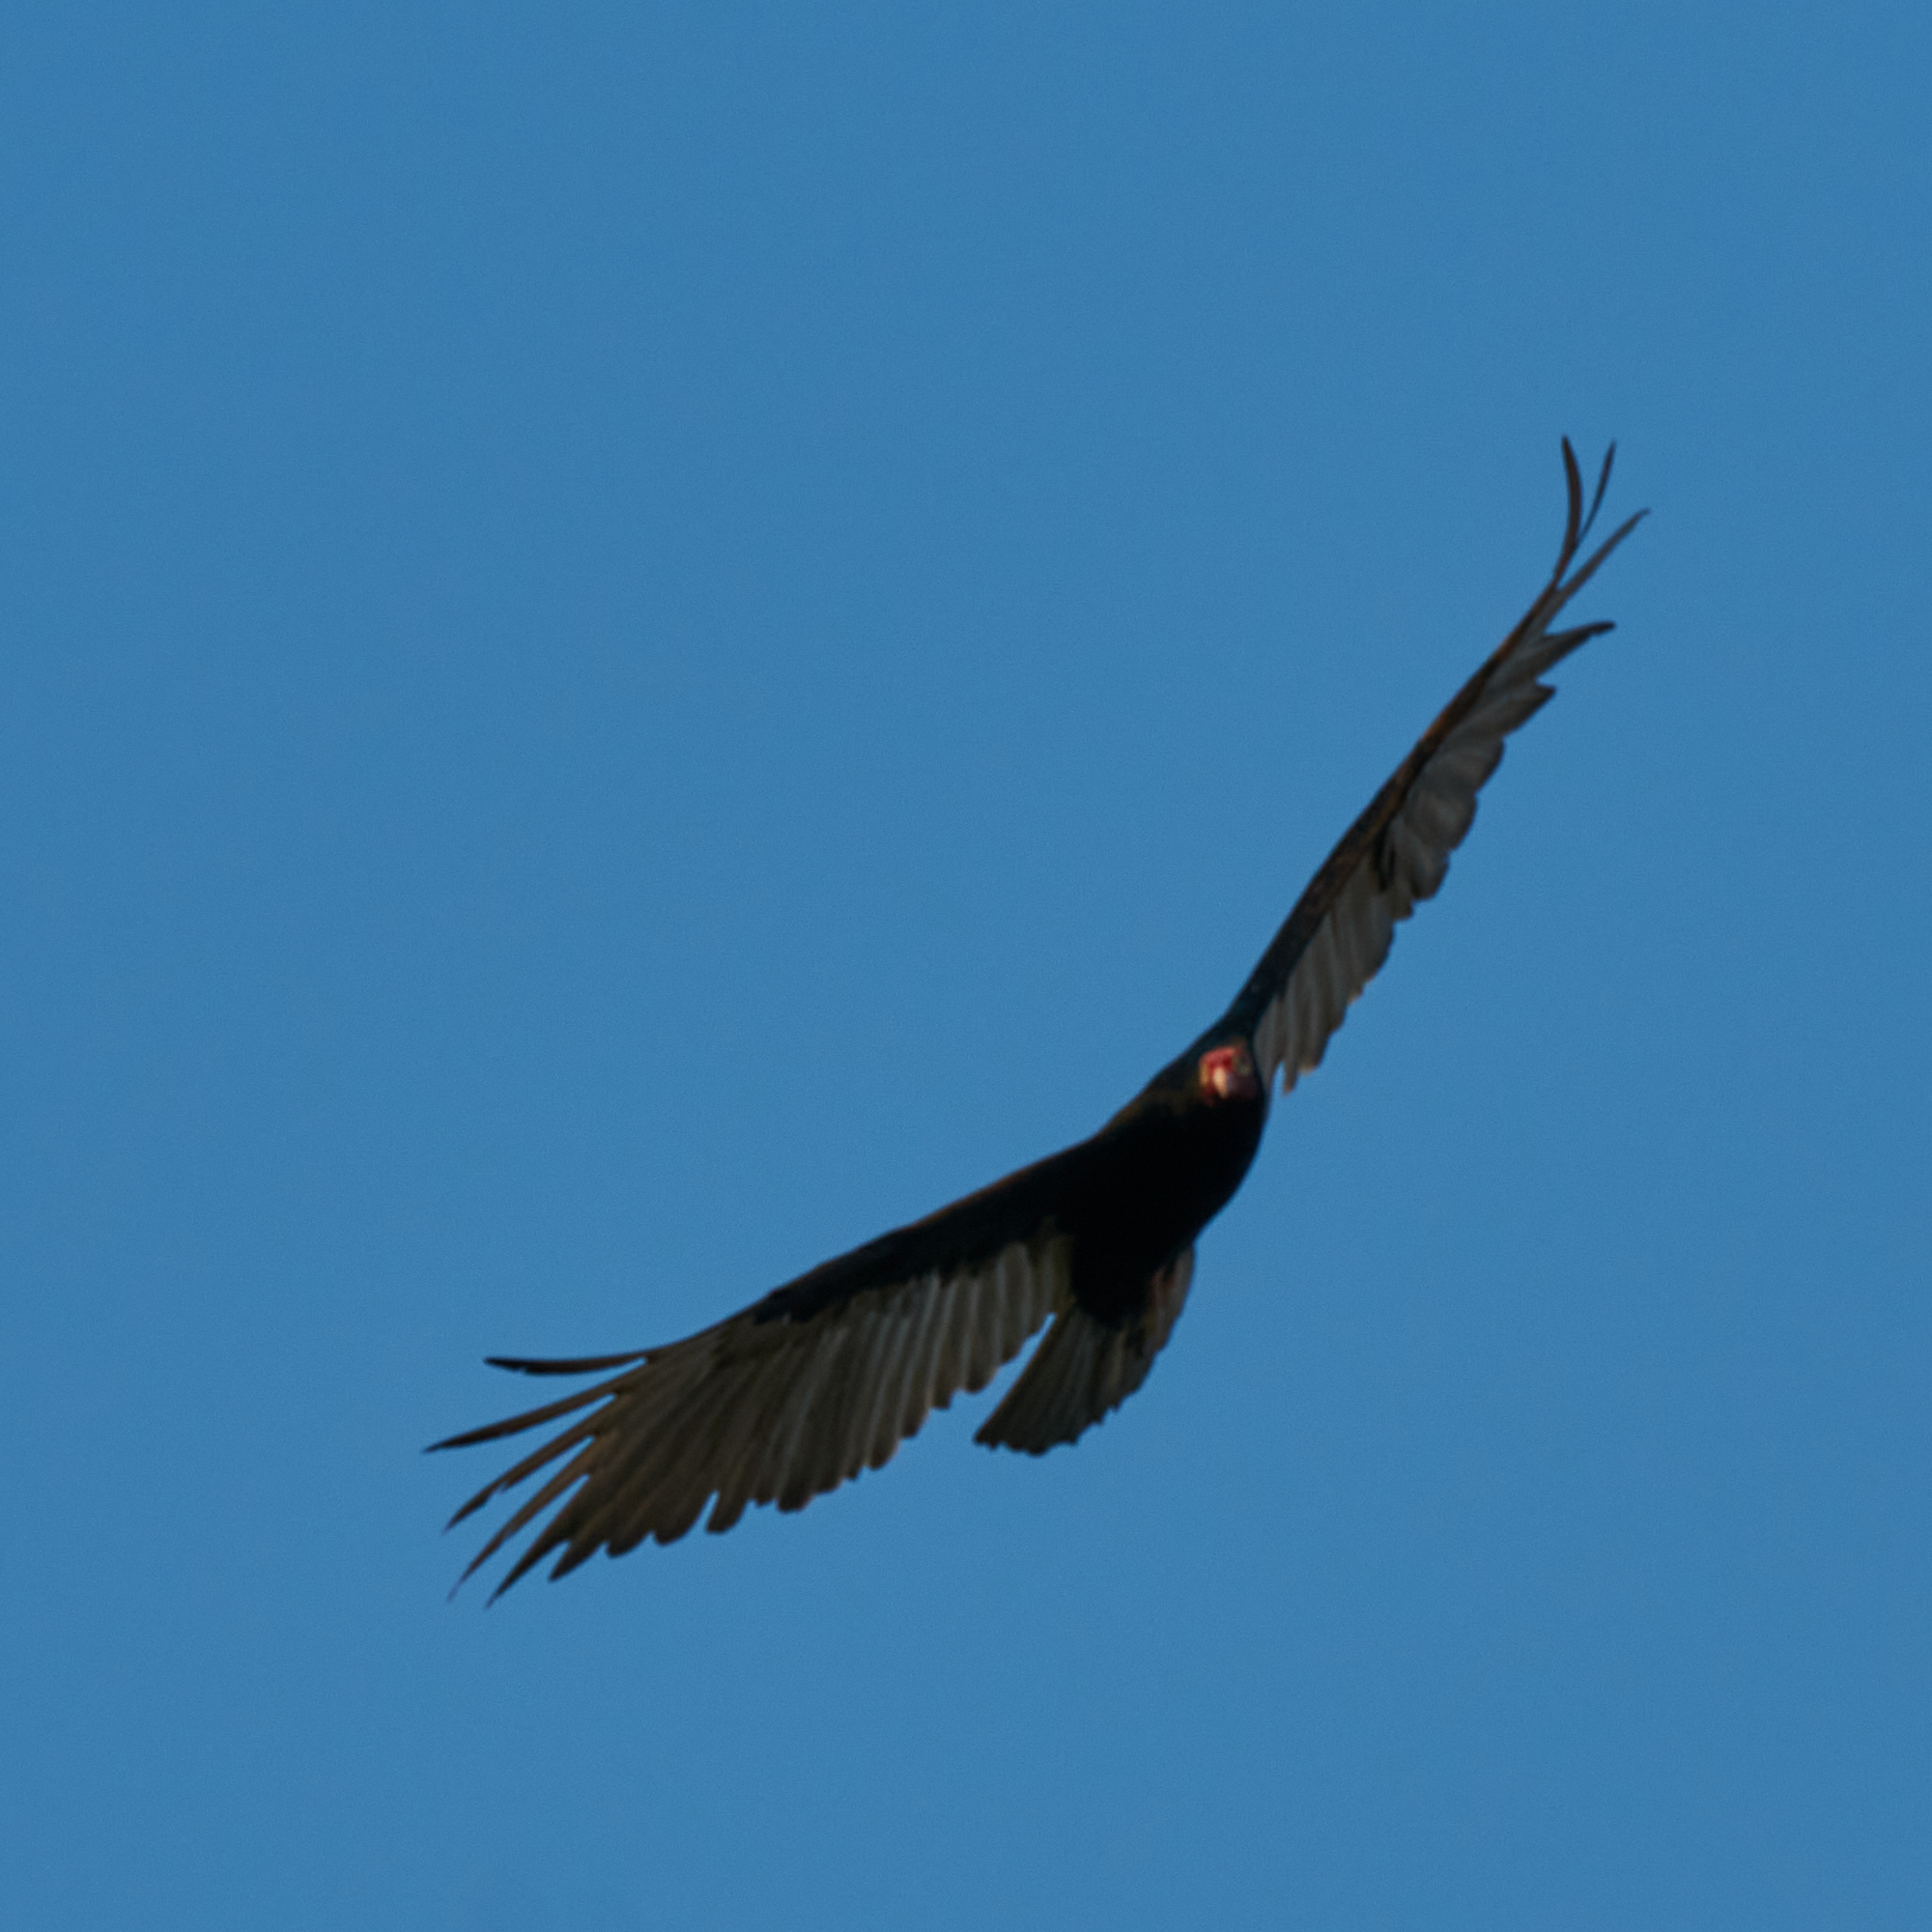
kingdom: Animalia
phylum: Chordata
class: Aves
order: Accipitriformes
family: Cathartidae
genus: Cathartes
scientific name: Cathartes aura
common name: Turkey vulture
